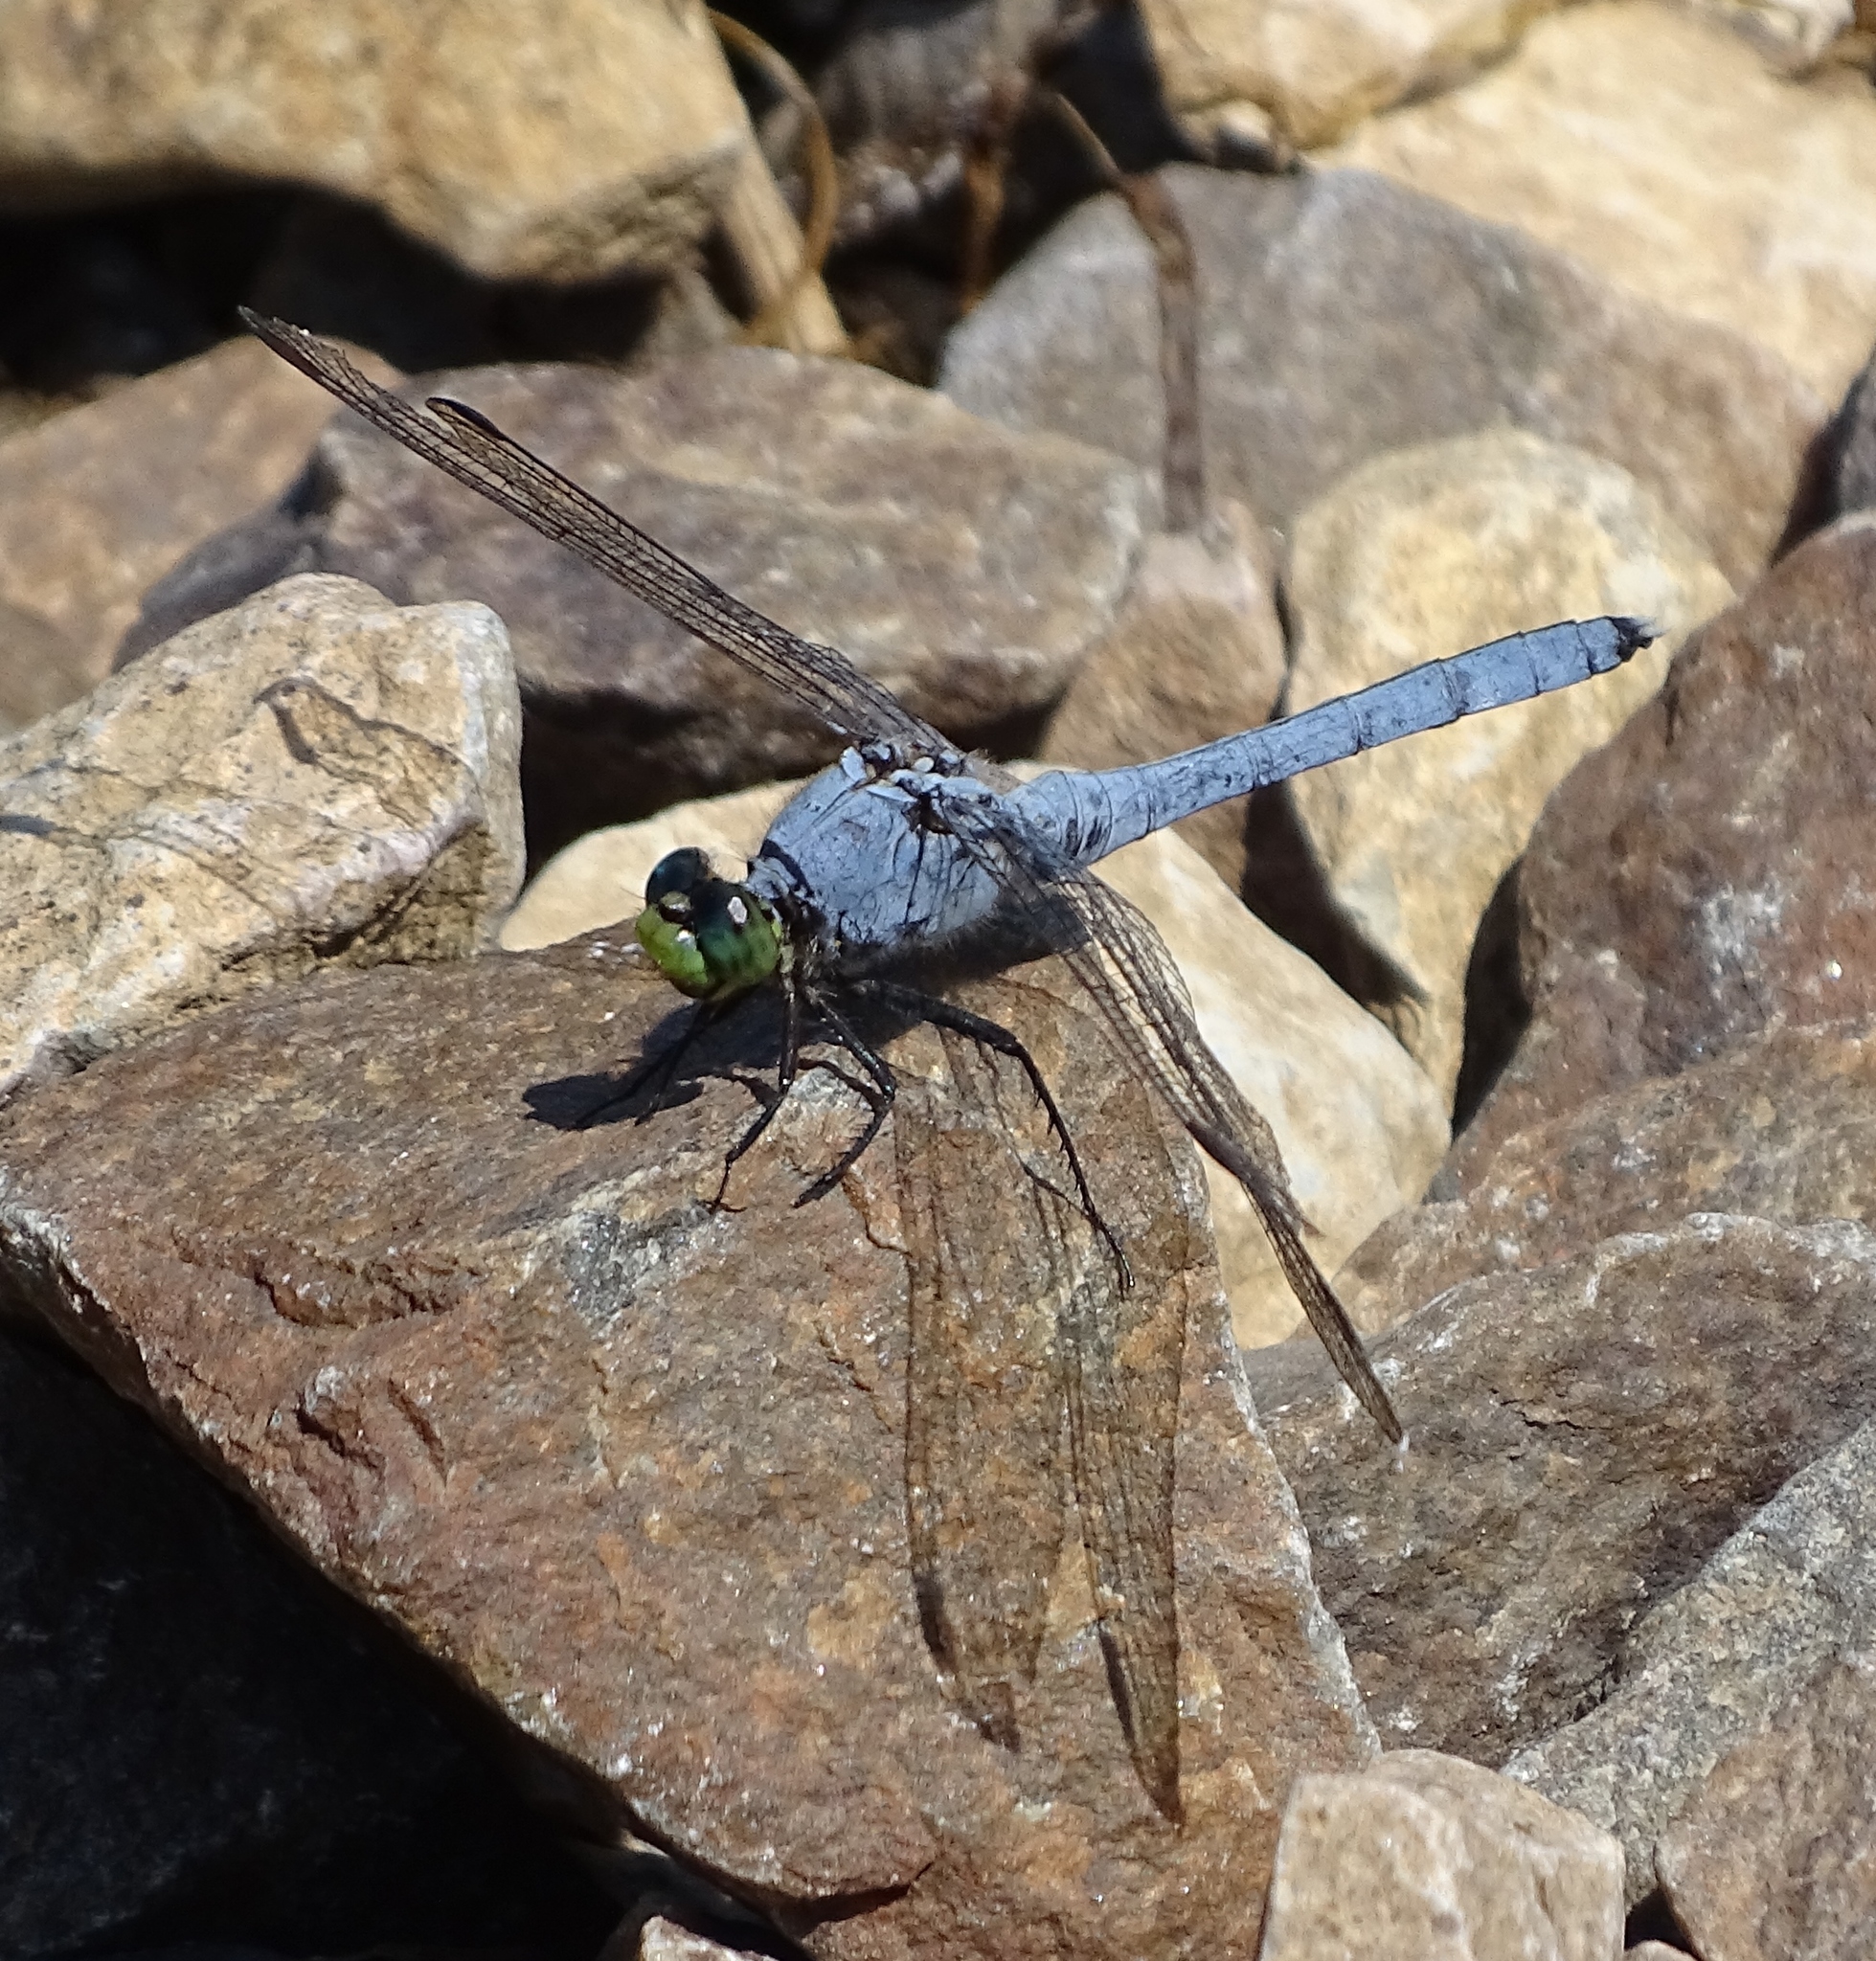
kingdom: Animalia
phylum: Arthropoda
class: Insecta
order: Odonata
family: Libellulidae
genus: Erythemis
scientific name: Erythemis simplicicollis
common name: Eastern pondhawk
